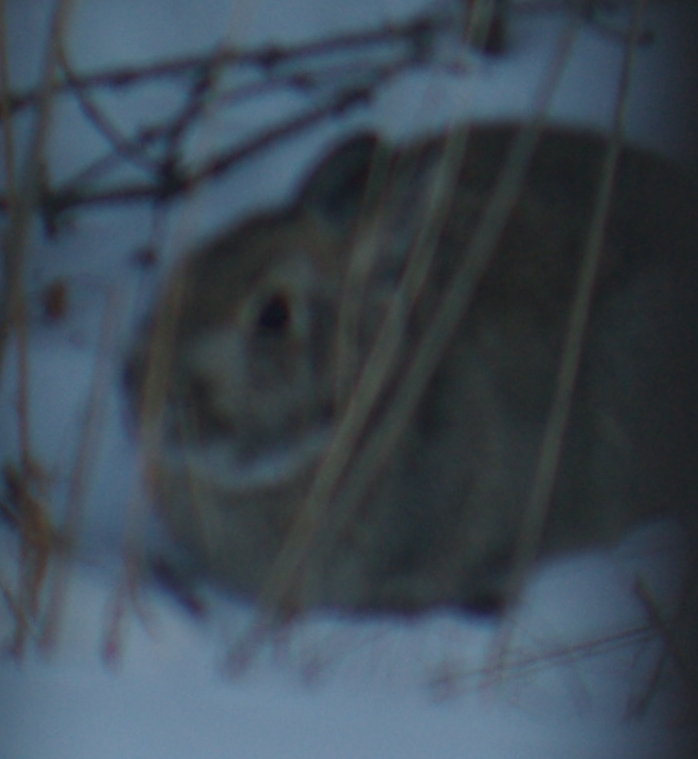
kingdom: Animalia
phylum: Chordata
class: Mammalia
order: Lagomorpha
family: Leporidae
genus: Sylvilagus
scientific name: Sylvilagus floridanus
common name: Eastern cottontail
